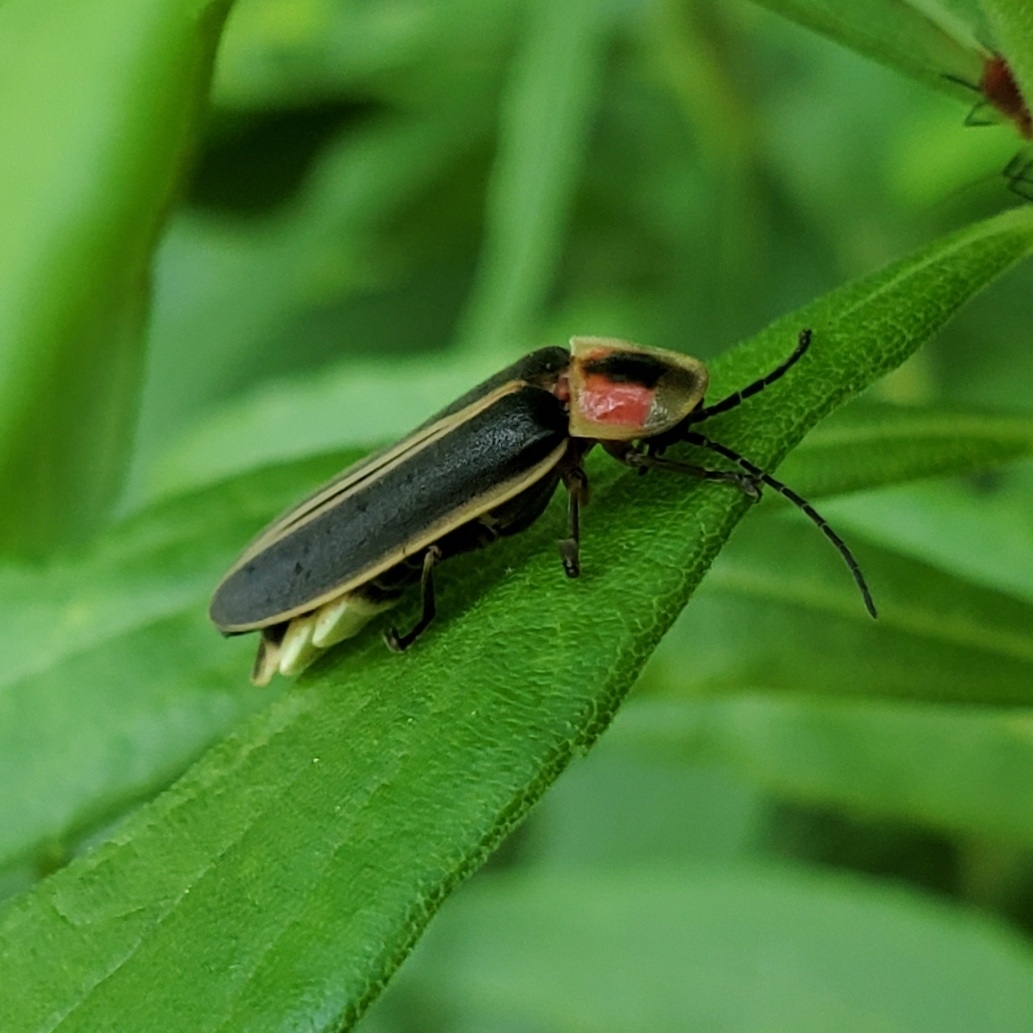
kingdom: Animalia
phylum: Arthropoda
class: Insecta
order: Coleoptera
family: Lampyridae
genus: Photinus
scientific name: Photinus pyralis
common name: Big dipper firefly
